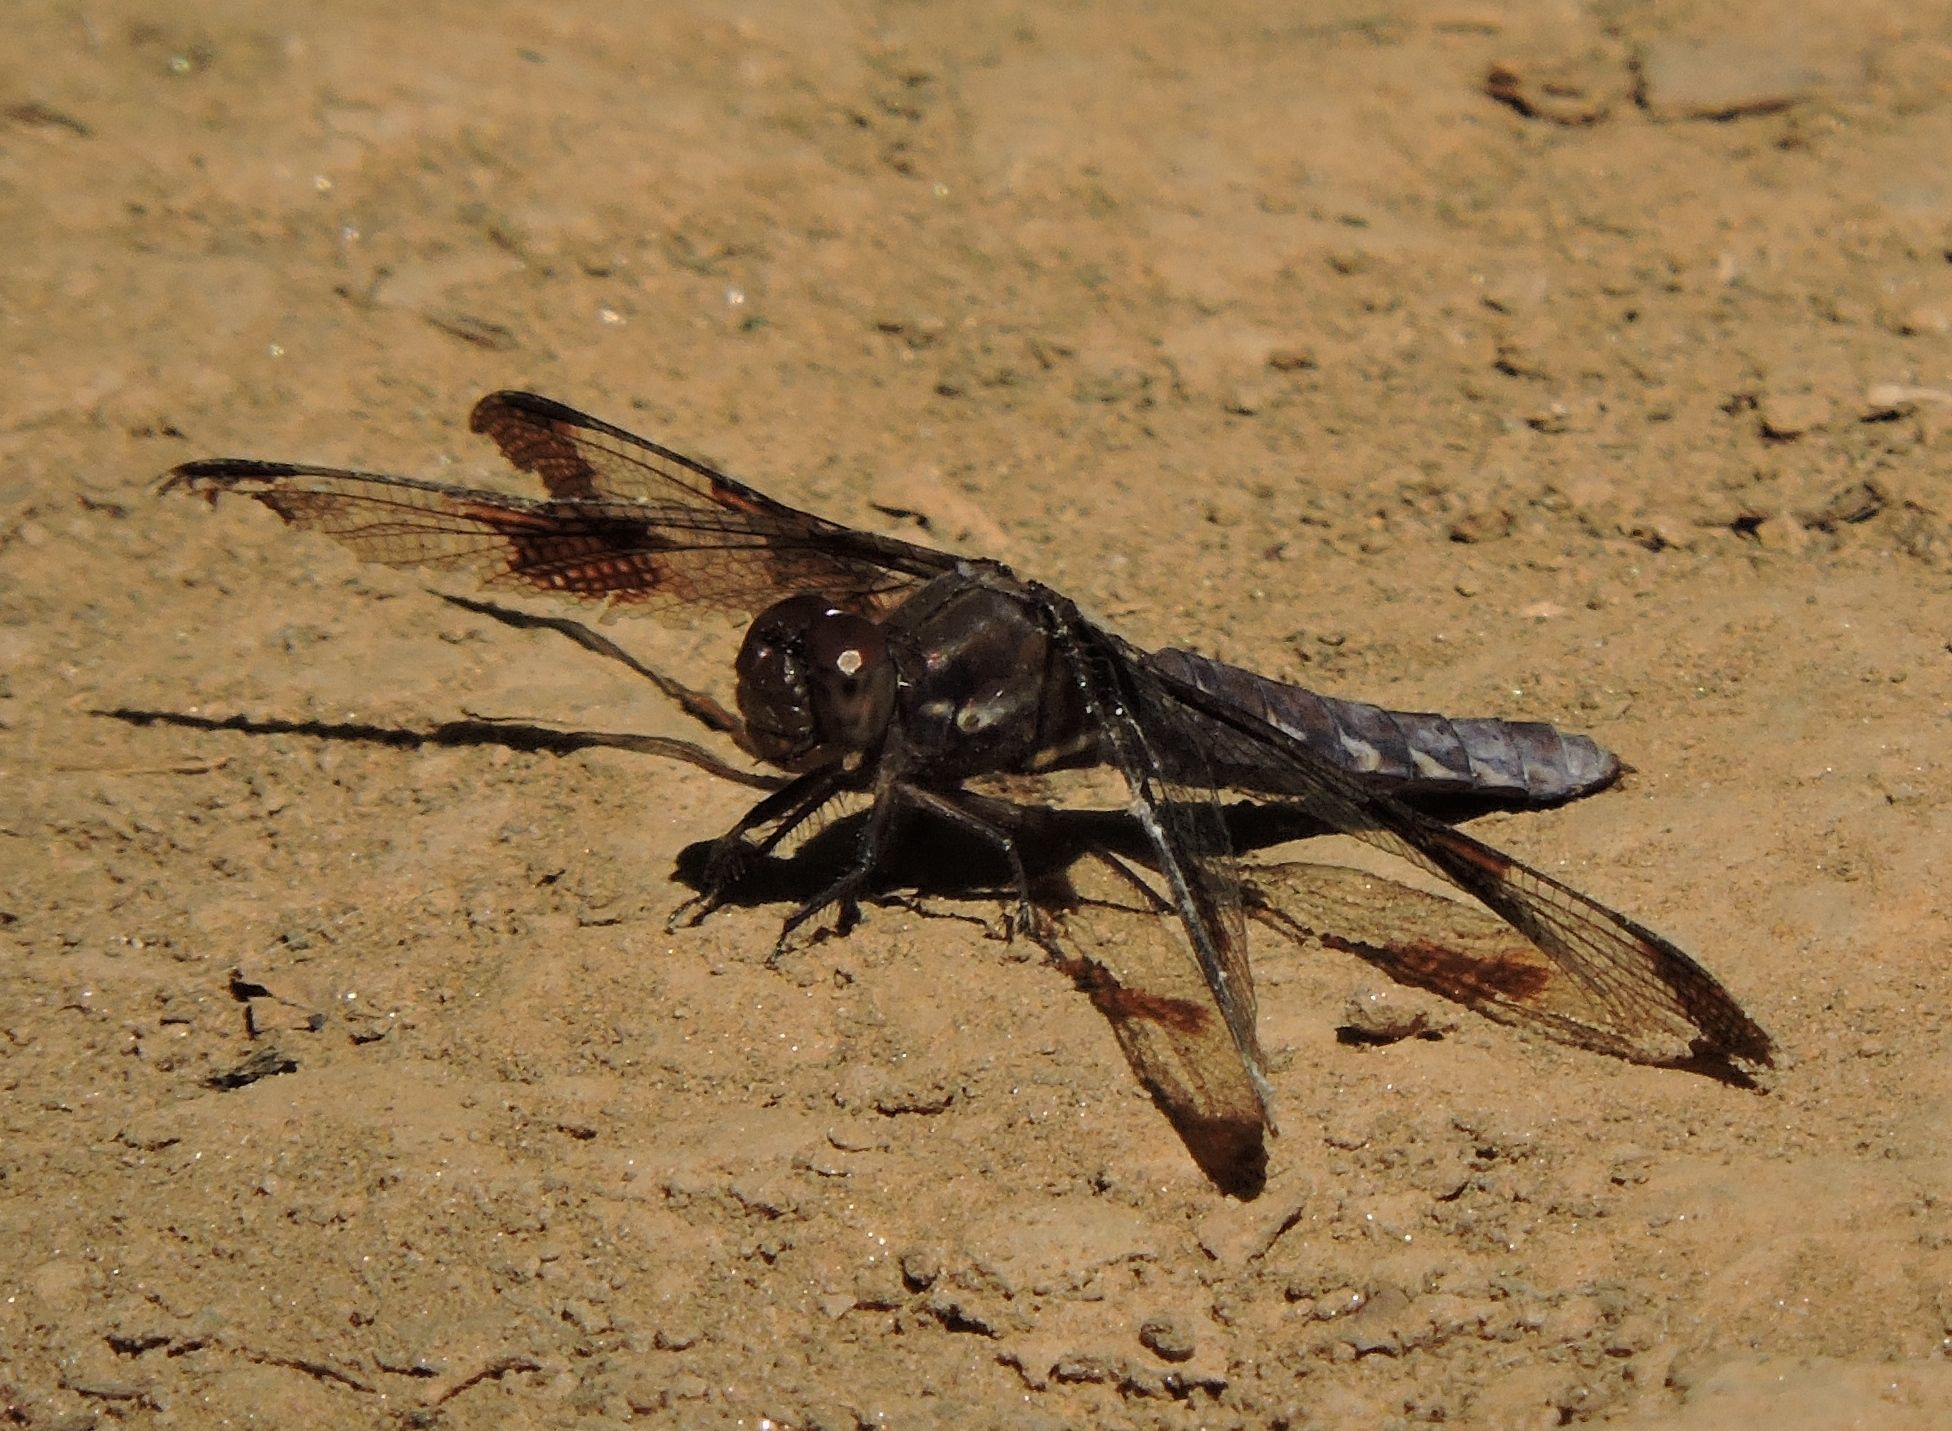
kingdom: Animalia
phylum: Arthropoda
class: Insecta
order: Odonata
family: Libellulidae
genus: Plathemis
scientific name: Plathemis lydia
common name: Common whitetail
